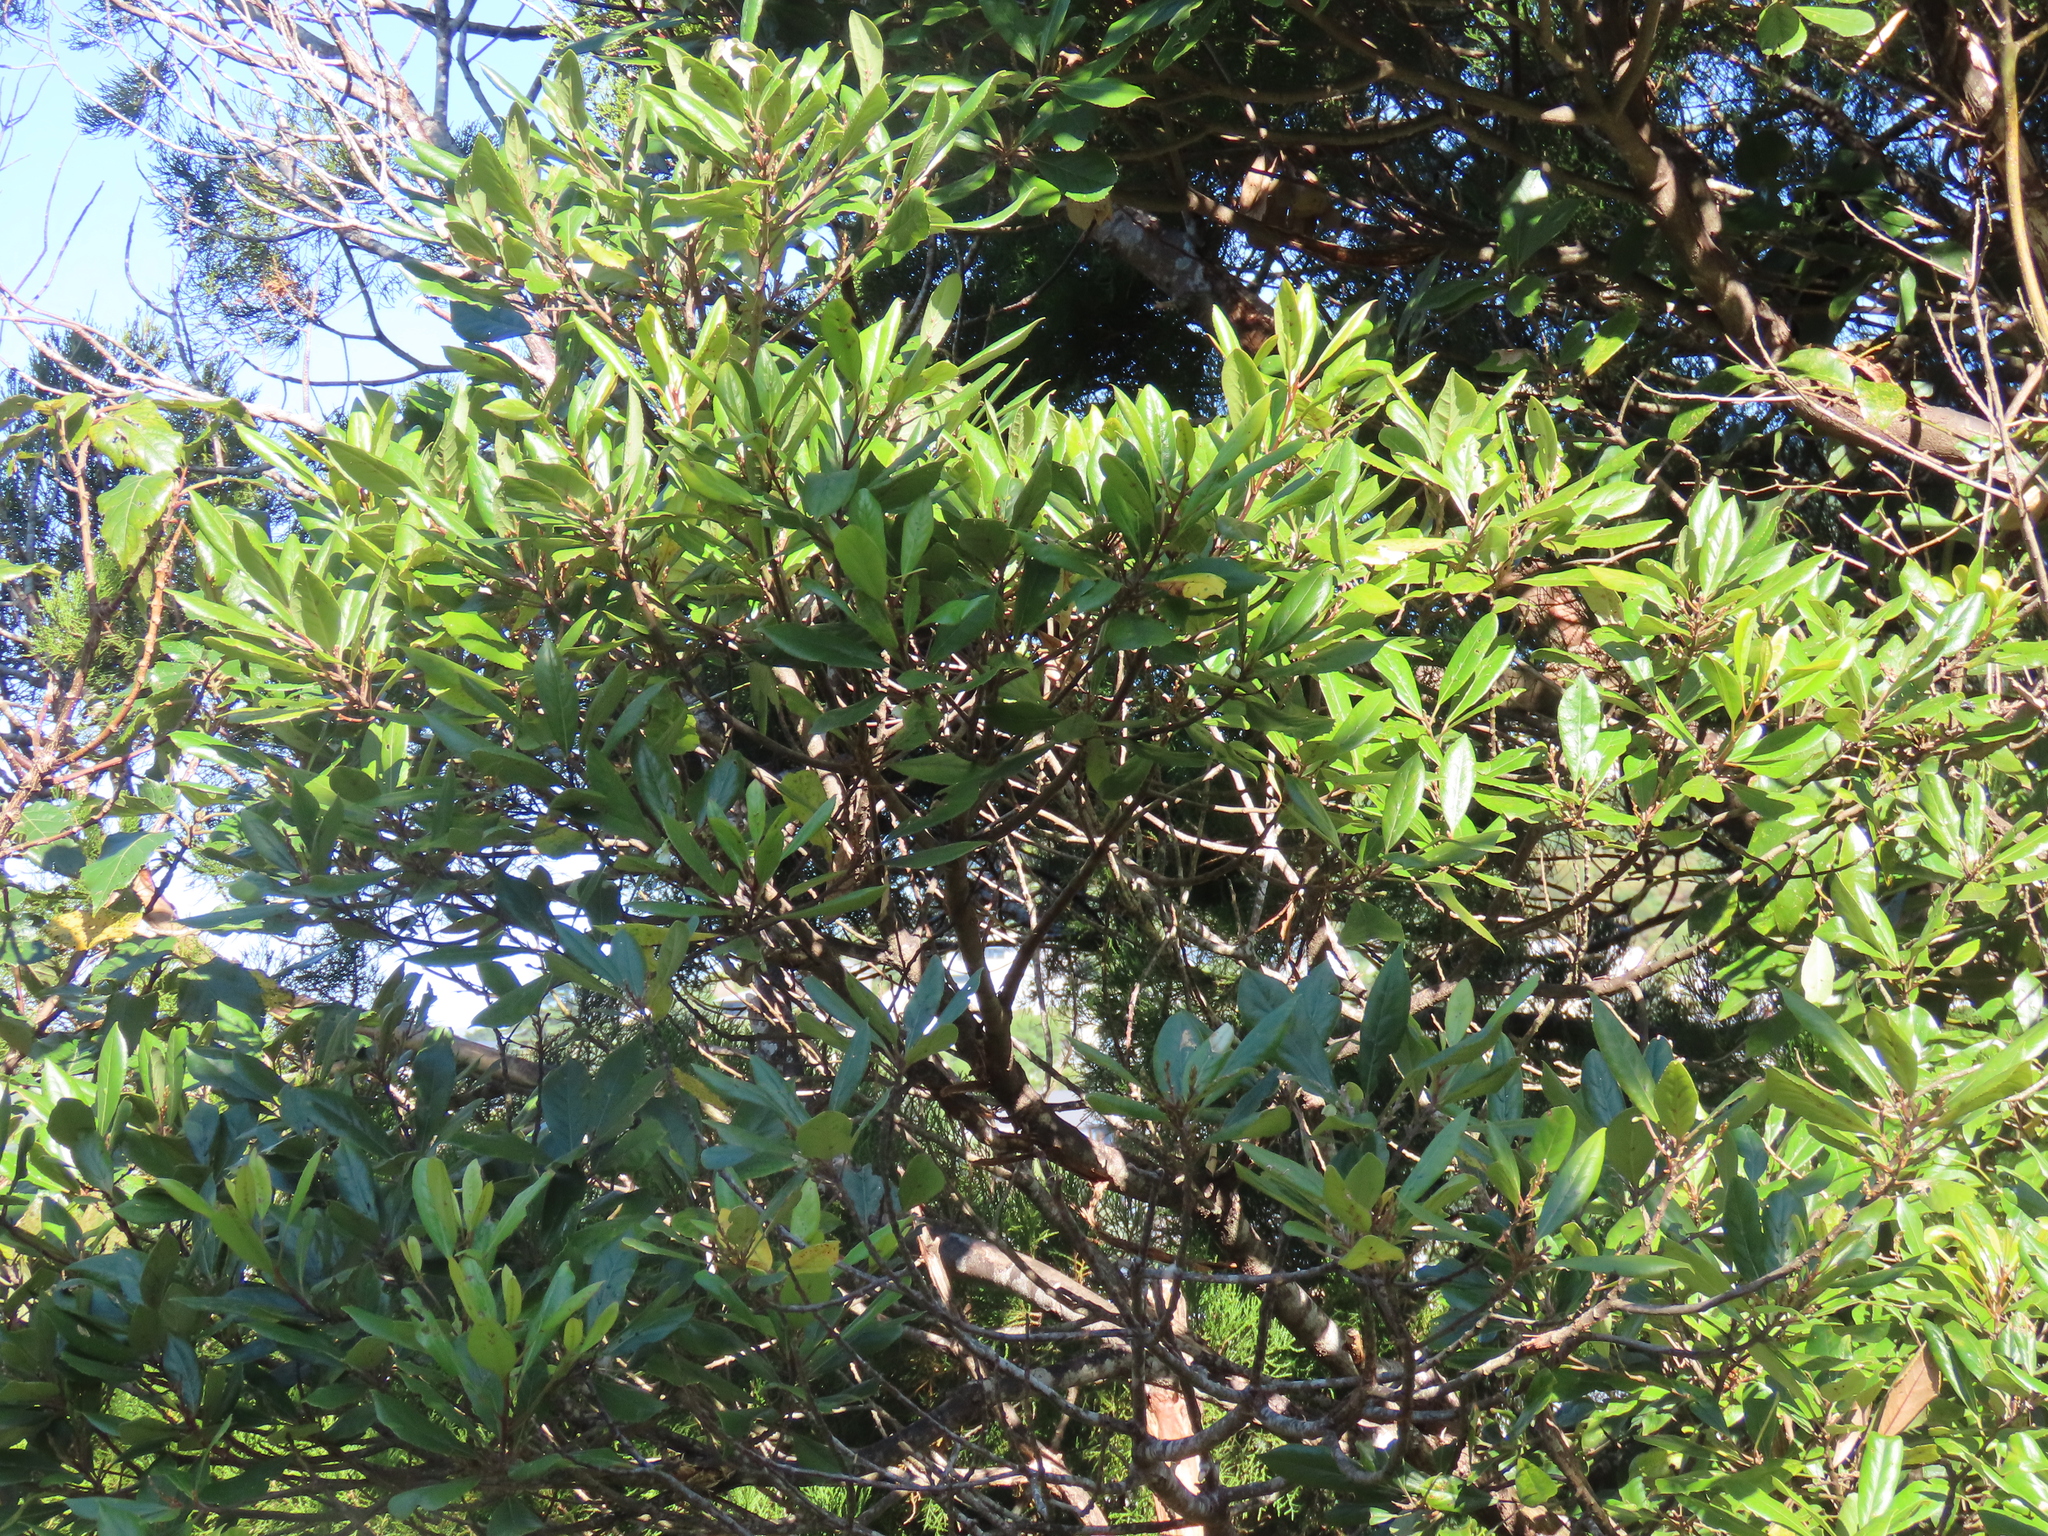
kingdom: Plantae
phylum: Tracheophyta
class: Magnoliopsida
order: Oxalidales
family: Elaeocarpaceae
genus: Elaeocarpus
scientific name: Elaeocarpus dentatus
